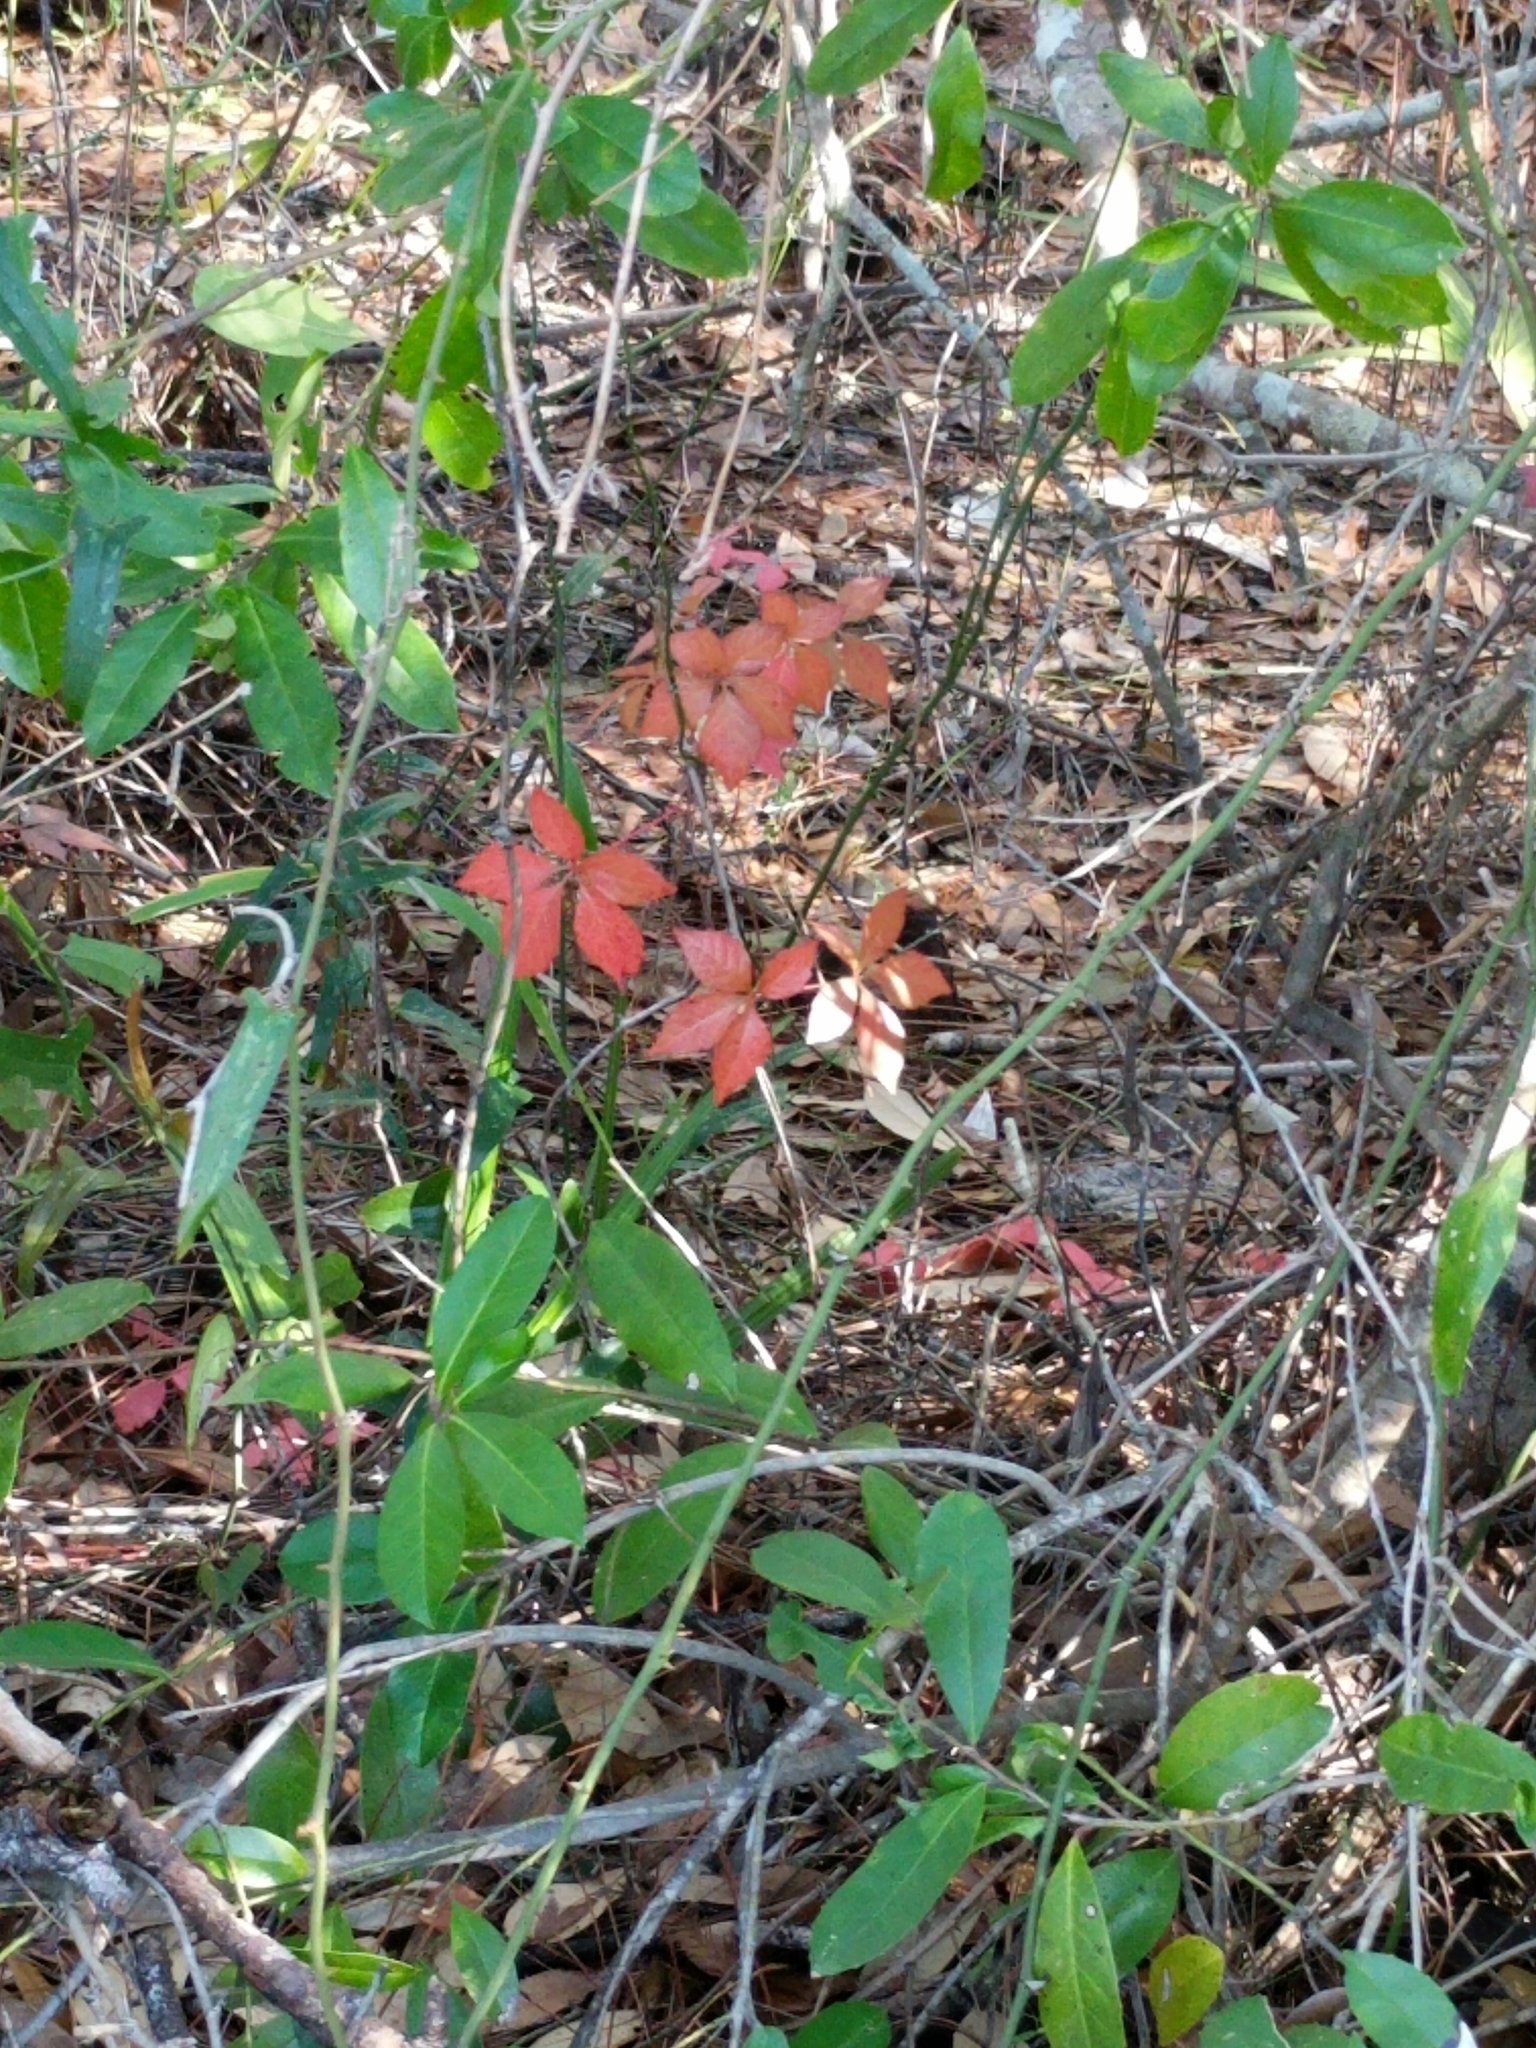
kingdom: Plantae
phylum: Tracheophyta
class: Magnoliopsida
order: Vitales
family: Vitaceae
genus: Parthenocissus
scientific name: Parthenocissus quinquefolia
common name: Virginia-creeper
